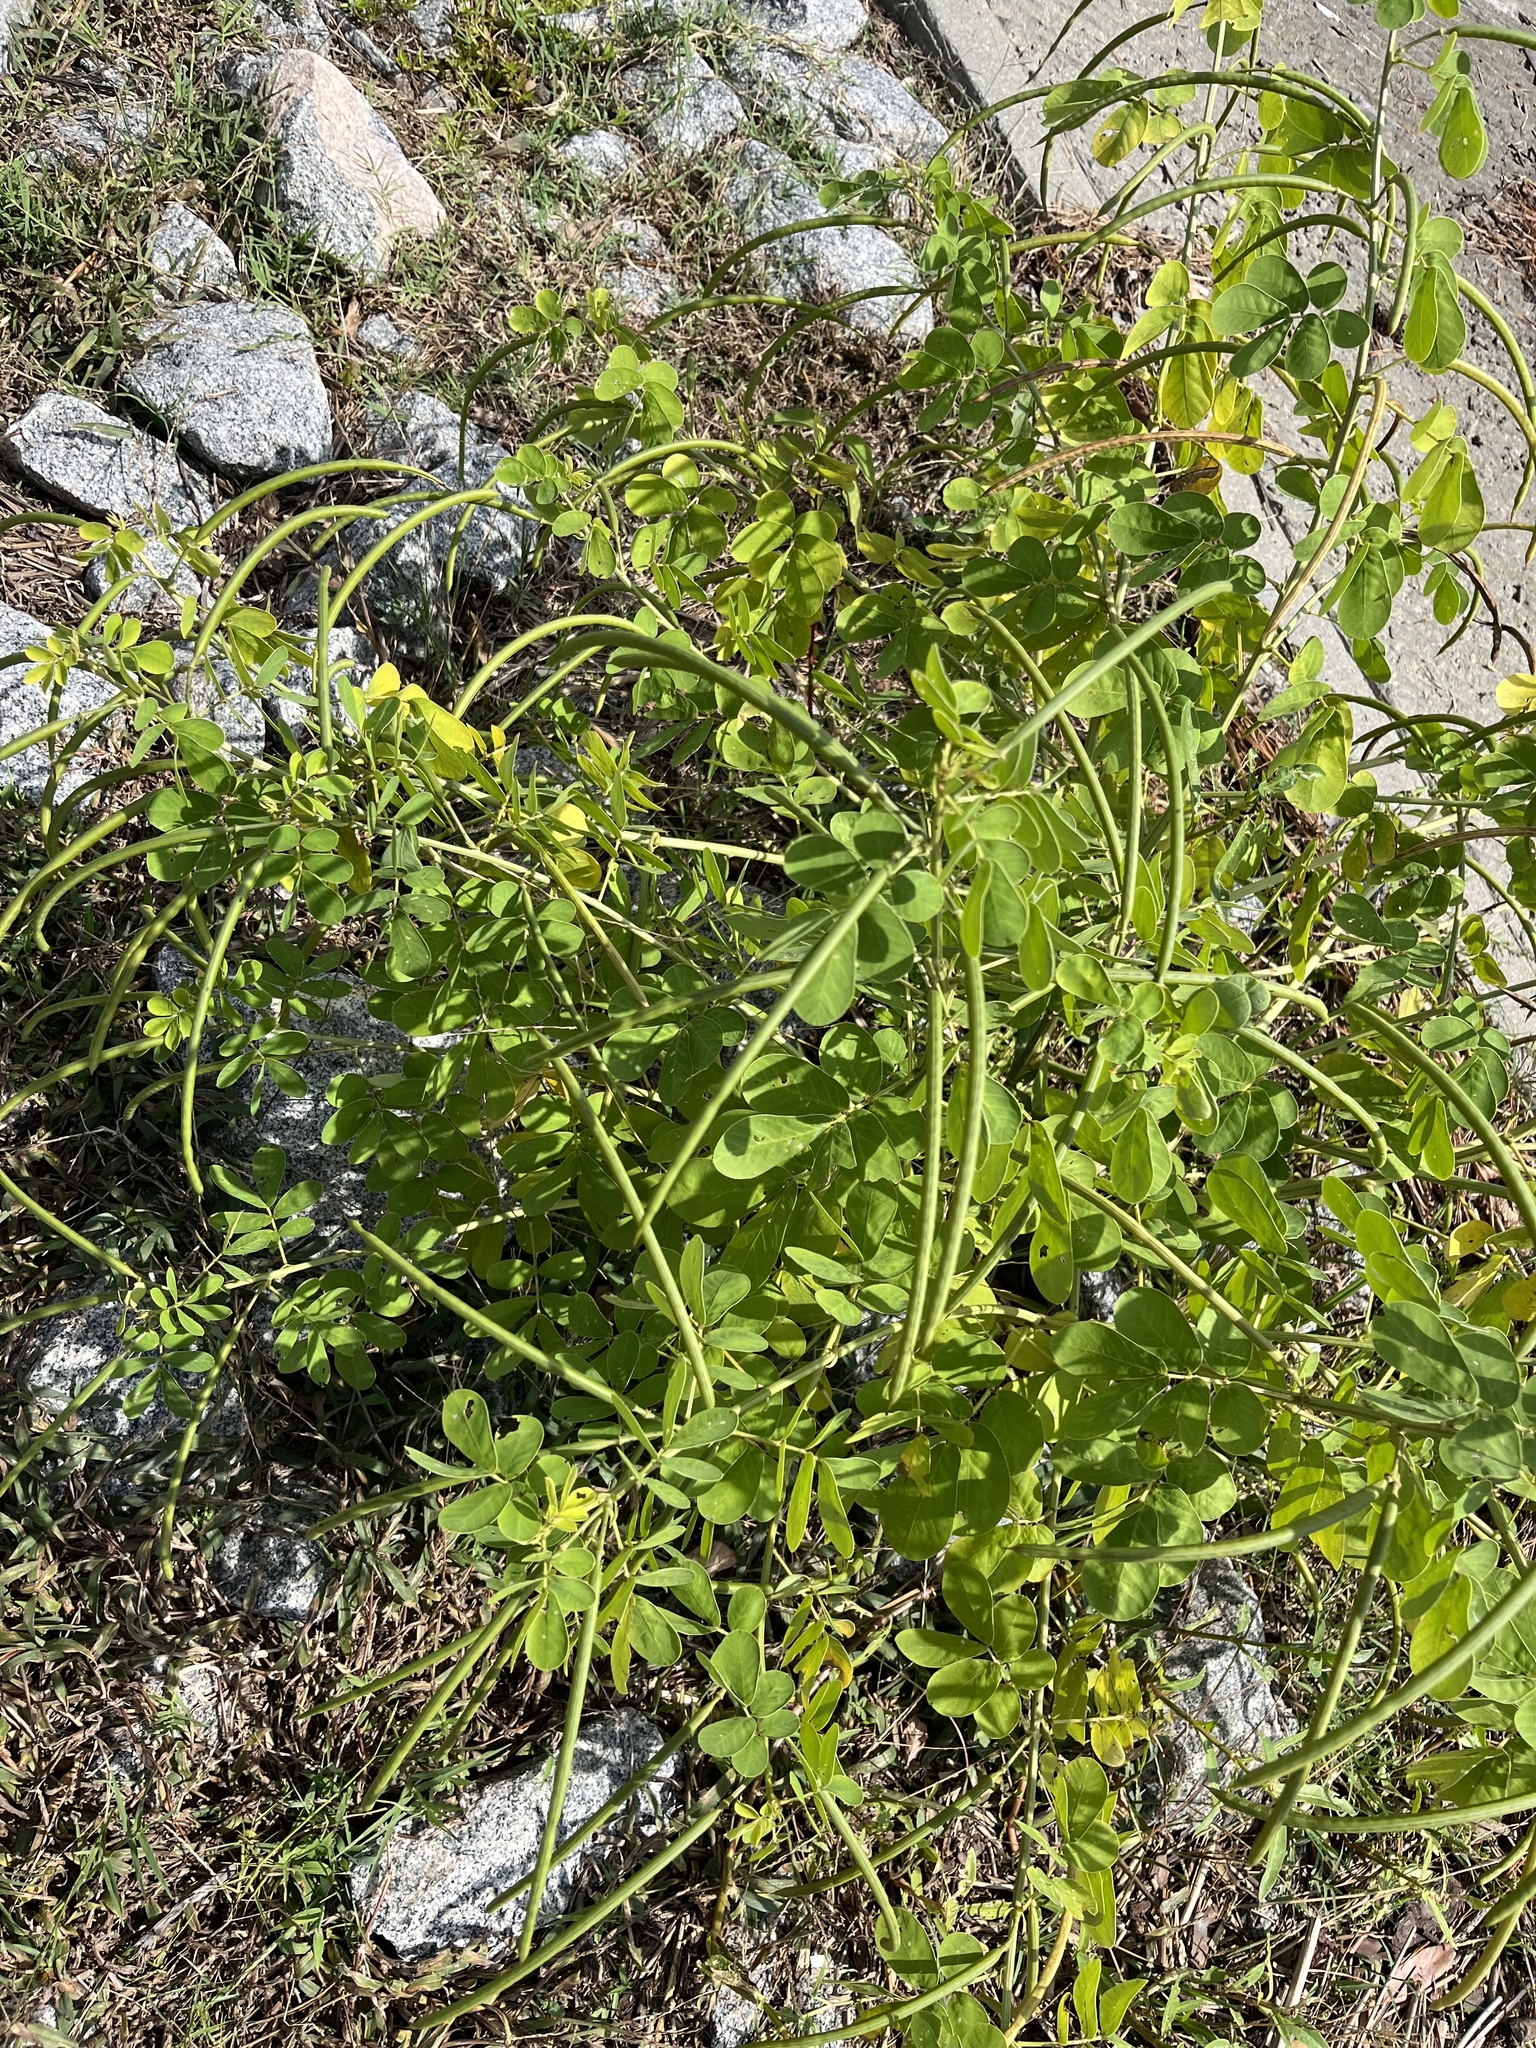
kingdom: Plantae
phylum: Tracheophyta
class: Magnoliopsida
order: Fabales
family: Fabaceae
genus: Senna
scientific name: Senna obtusifolia
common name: Java-bean
